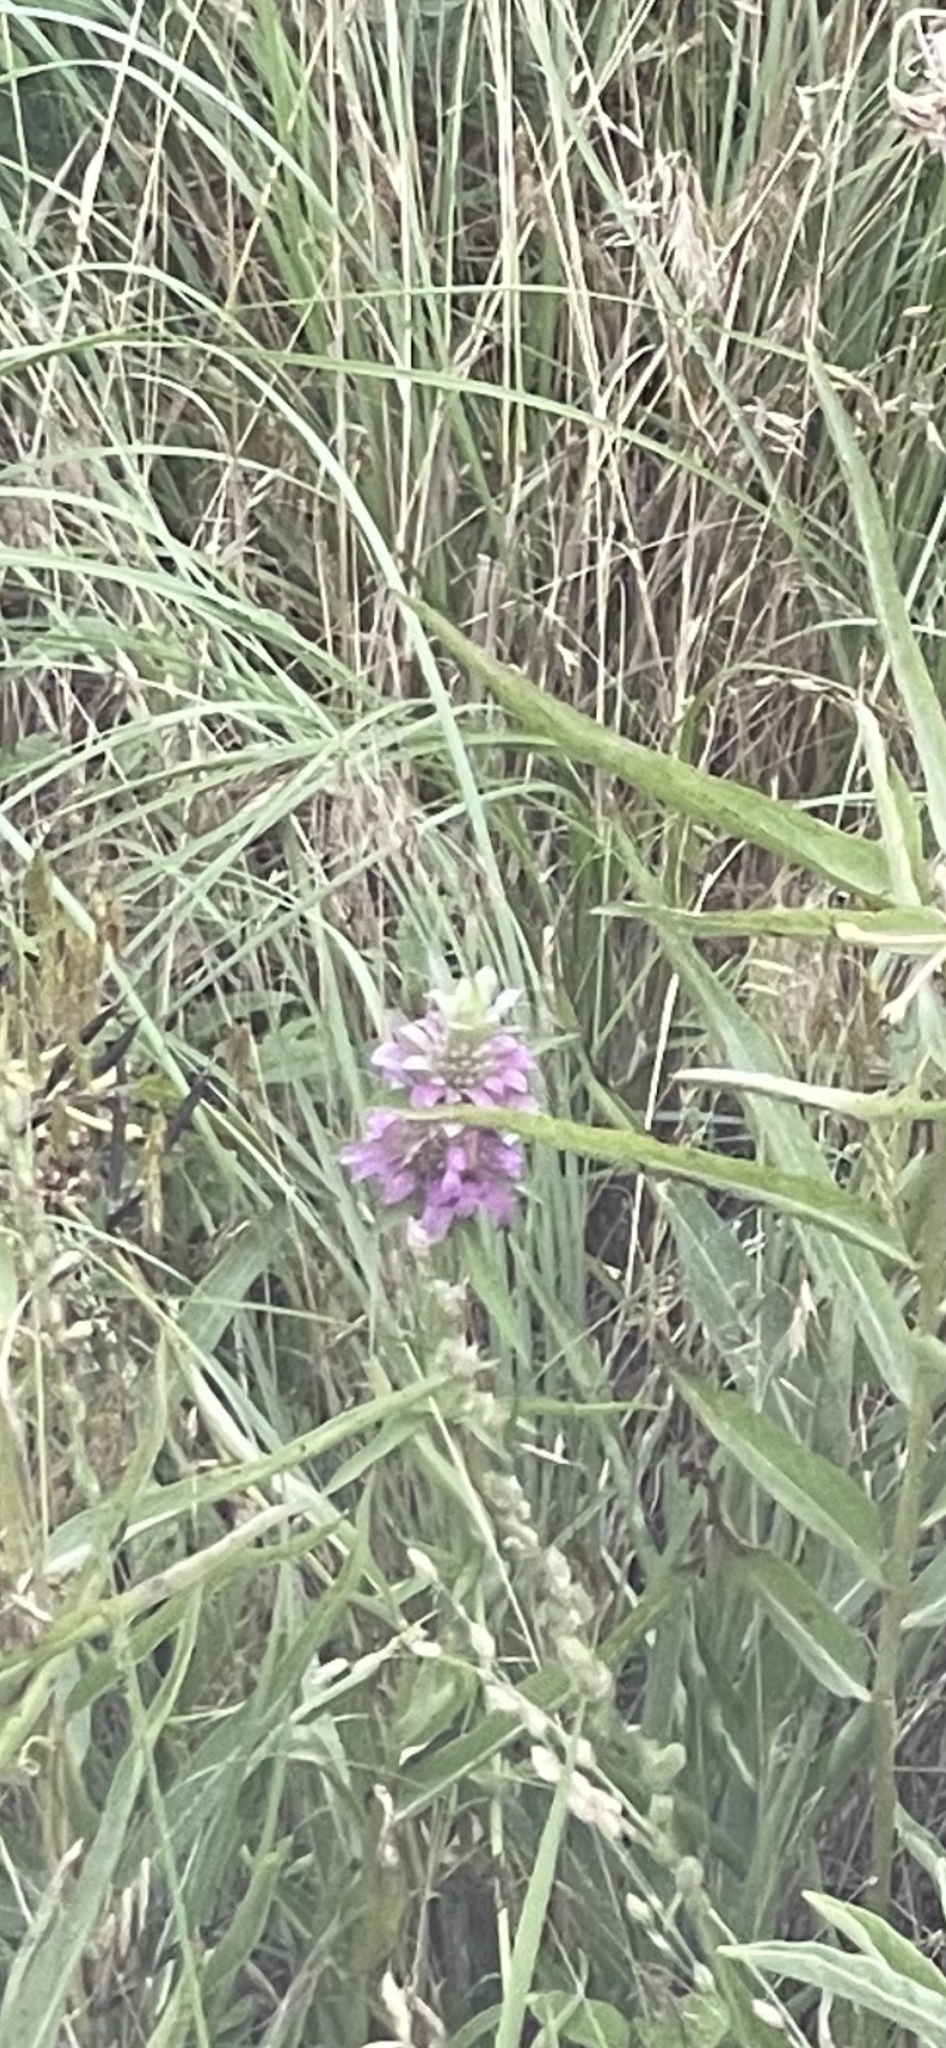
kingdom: Plantae
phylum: Tracheophyta
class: Magnoliopsida
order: Lamiales
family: Lamiaceae
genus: Monarda
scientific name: Monarda citriodora
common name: Lemon beebalm
